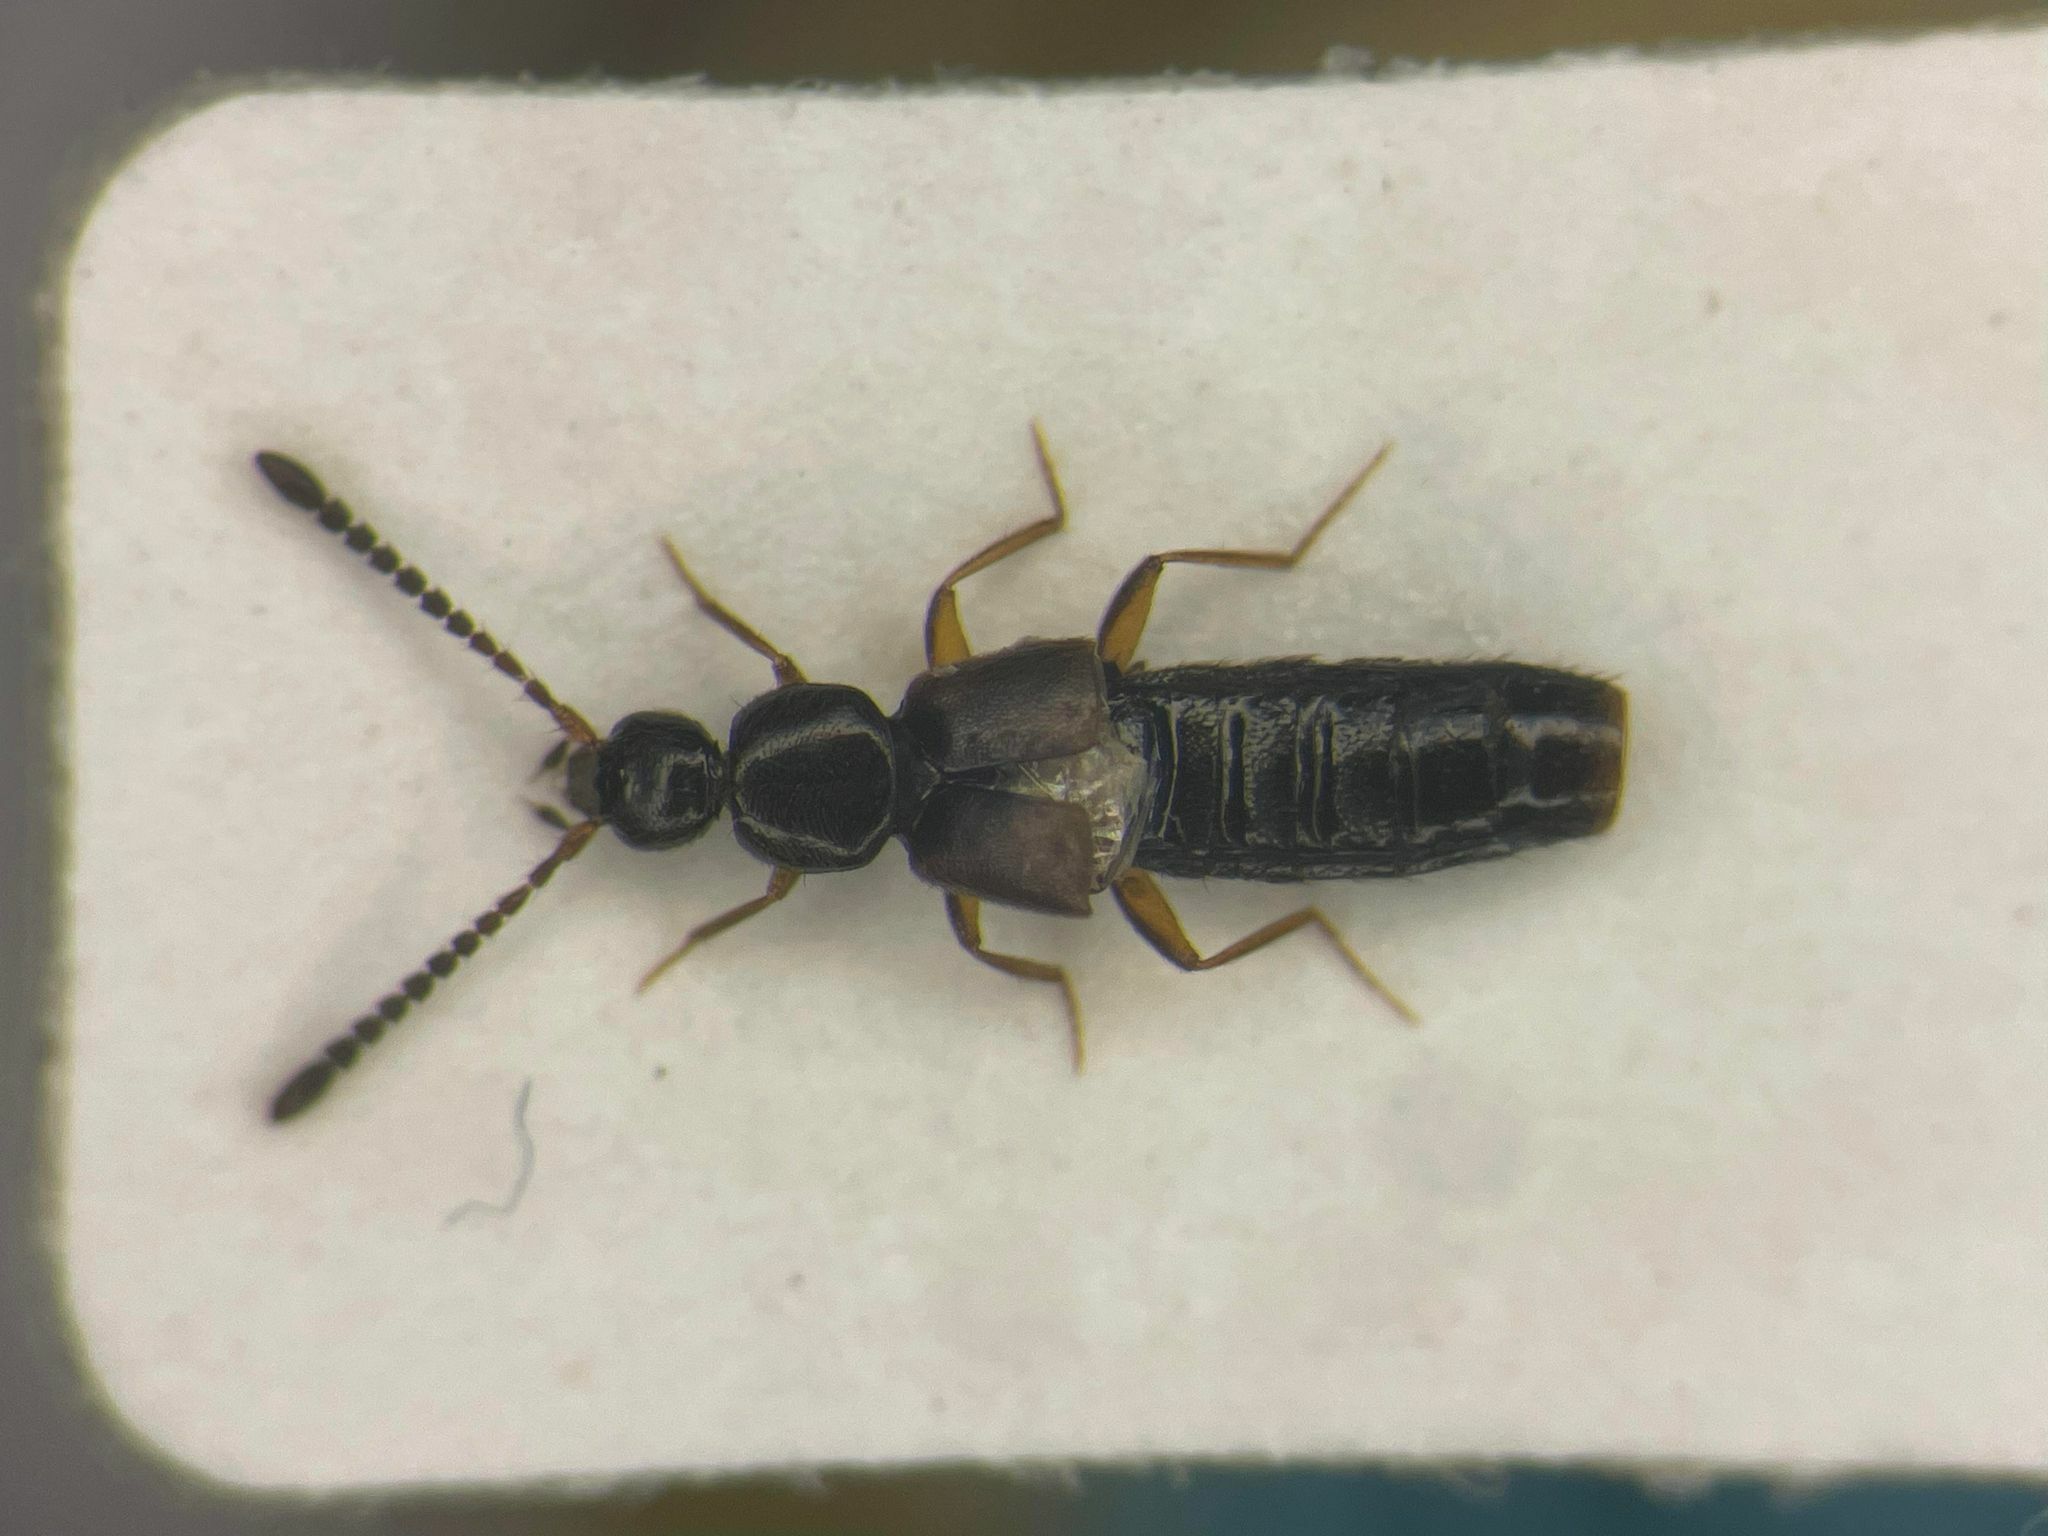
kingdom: Animalia
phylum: Arthropoda
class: Insecta
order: Coleoptera
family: Staphylinidae
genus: Atheta
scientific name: Atheta circulicollis
